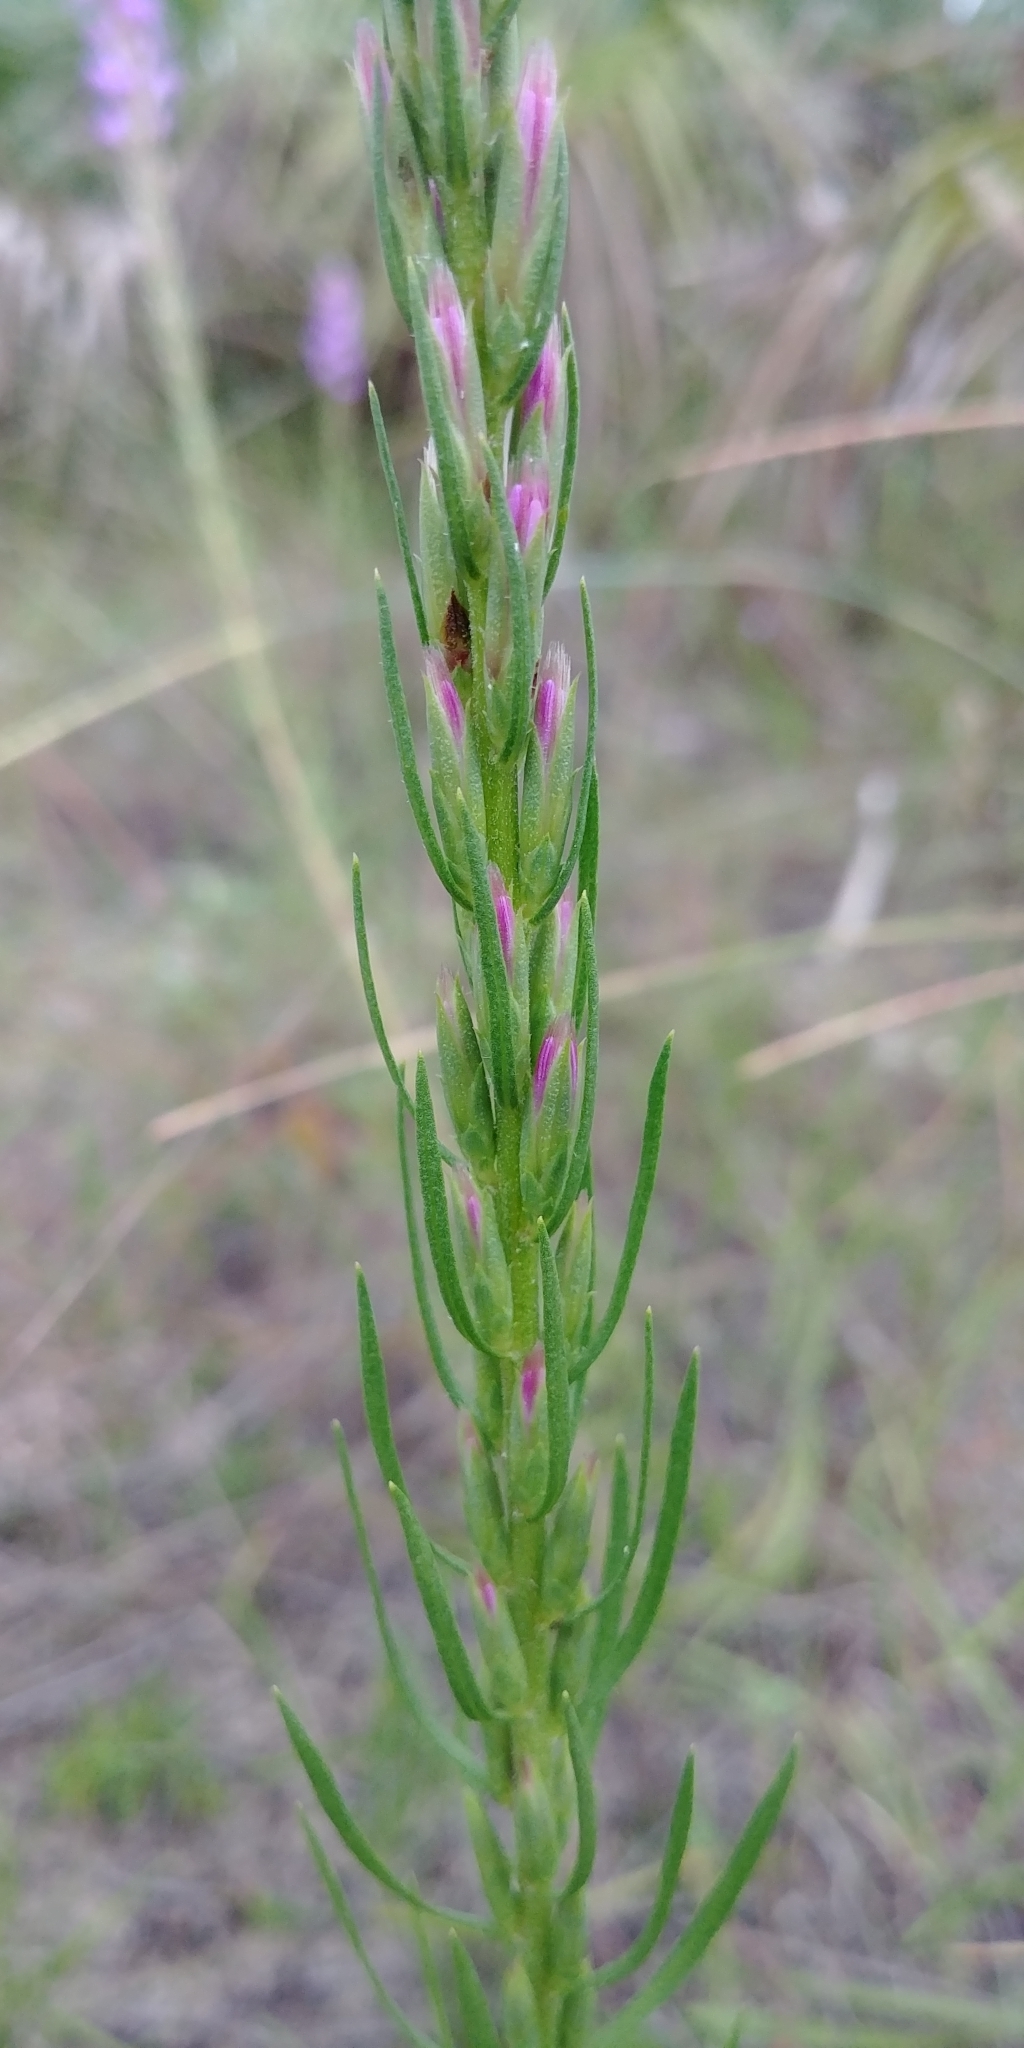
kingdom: Plantae
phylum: Tracheophyta
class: Magnoliopsida
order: Asterales
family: Asteraceae
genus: Liatris
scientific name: Liatris chapmanii
